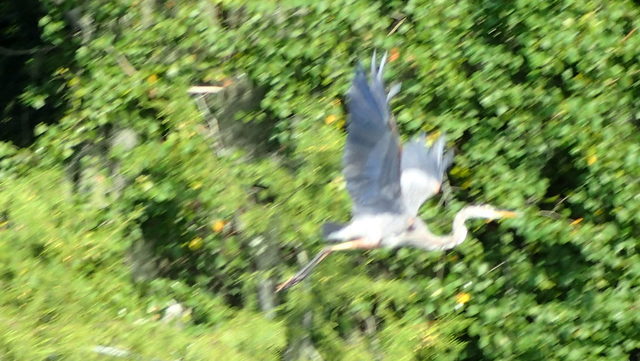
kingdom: Animalia
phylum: Chordata
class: Aves
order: Pelecaniformes
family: Ardeidae
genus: Ardea
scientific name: Ardea herodias
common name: Great blue heron
